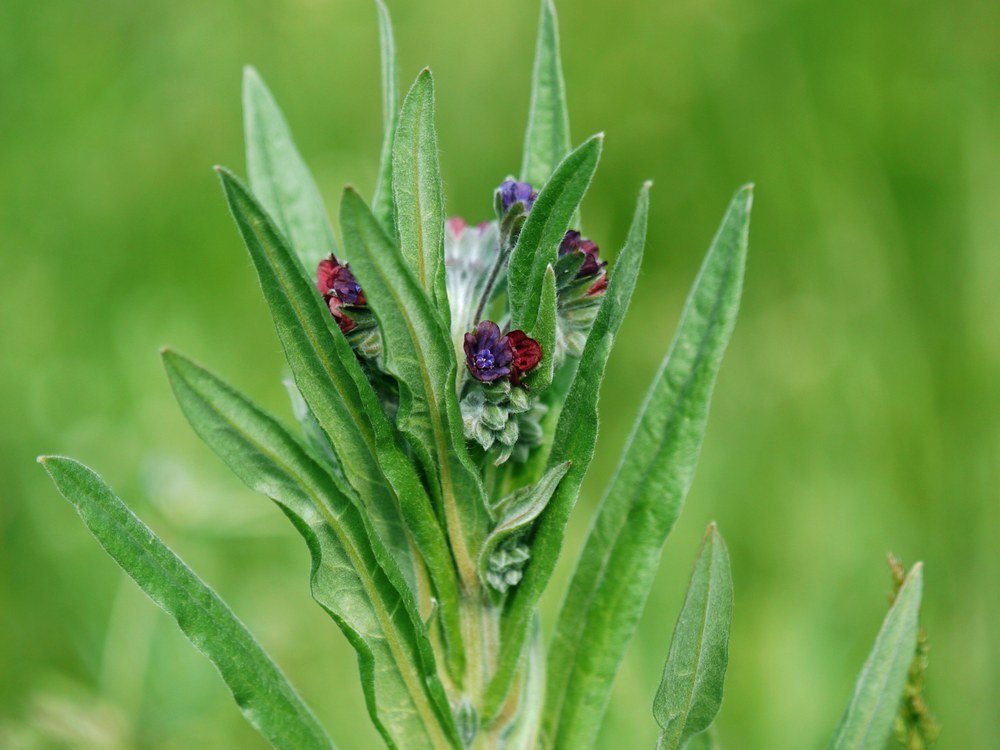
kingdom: Plantae
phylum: Tracheophyta
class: Magnoliopsida
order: Boraginales
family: Boraginaceae
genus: Cynoglossum
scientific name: Cynoglossum officinale
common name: Hound's-tongue
